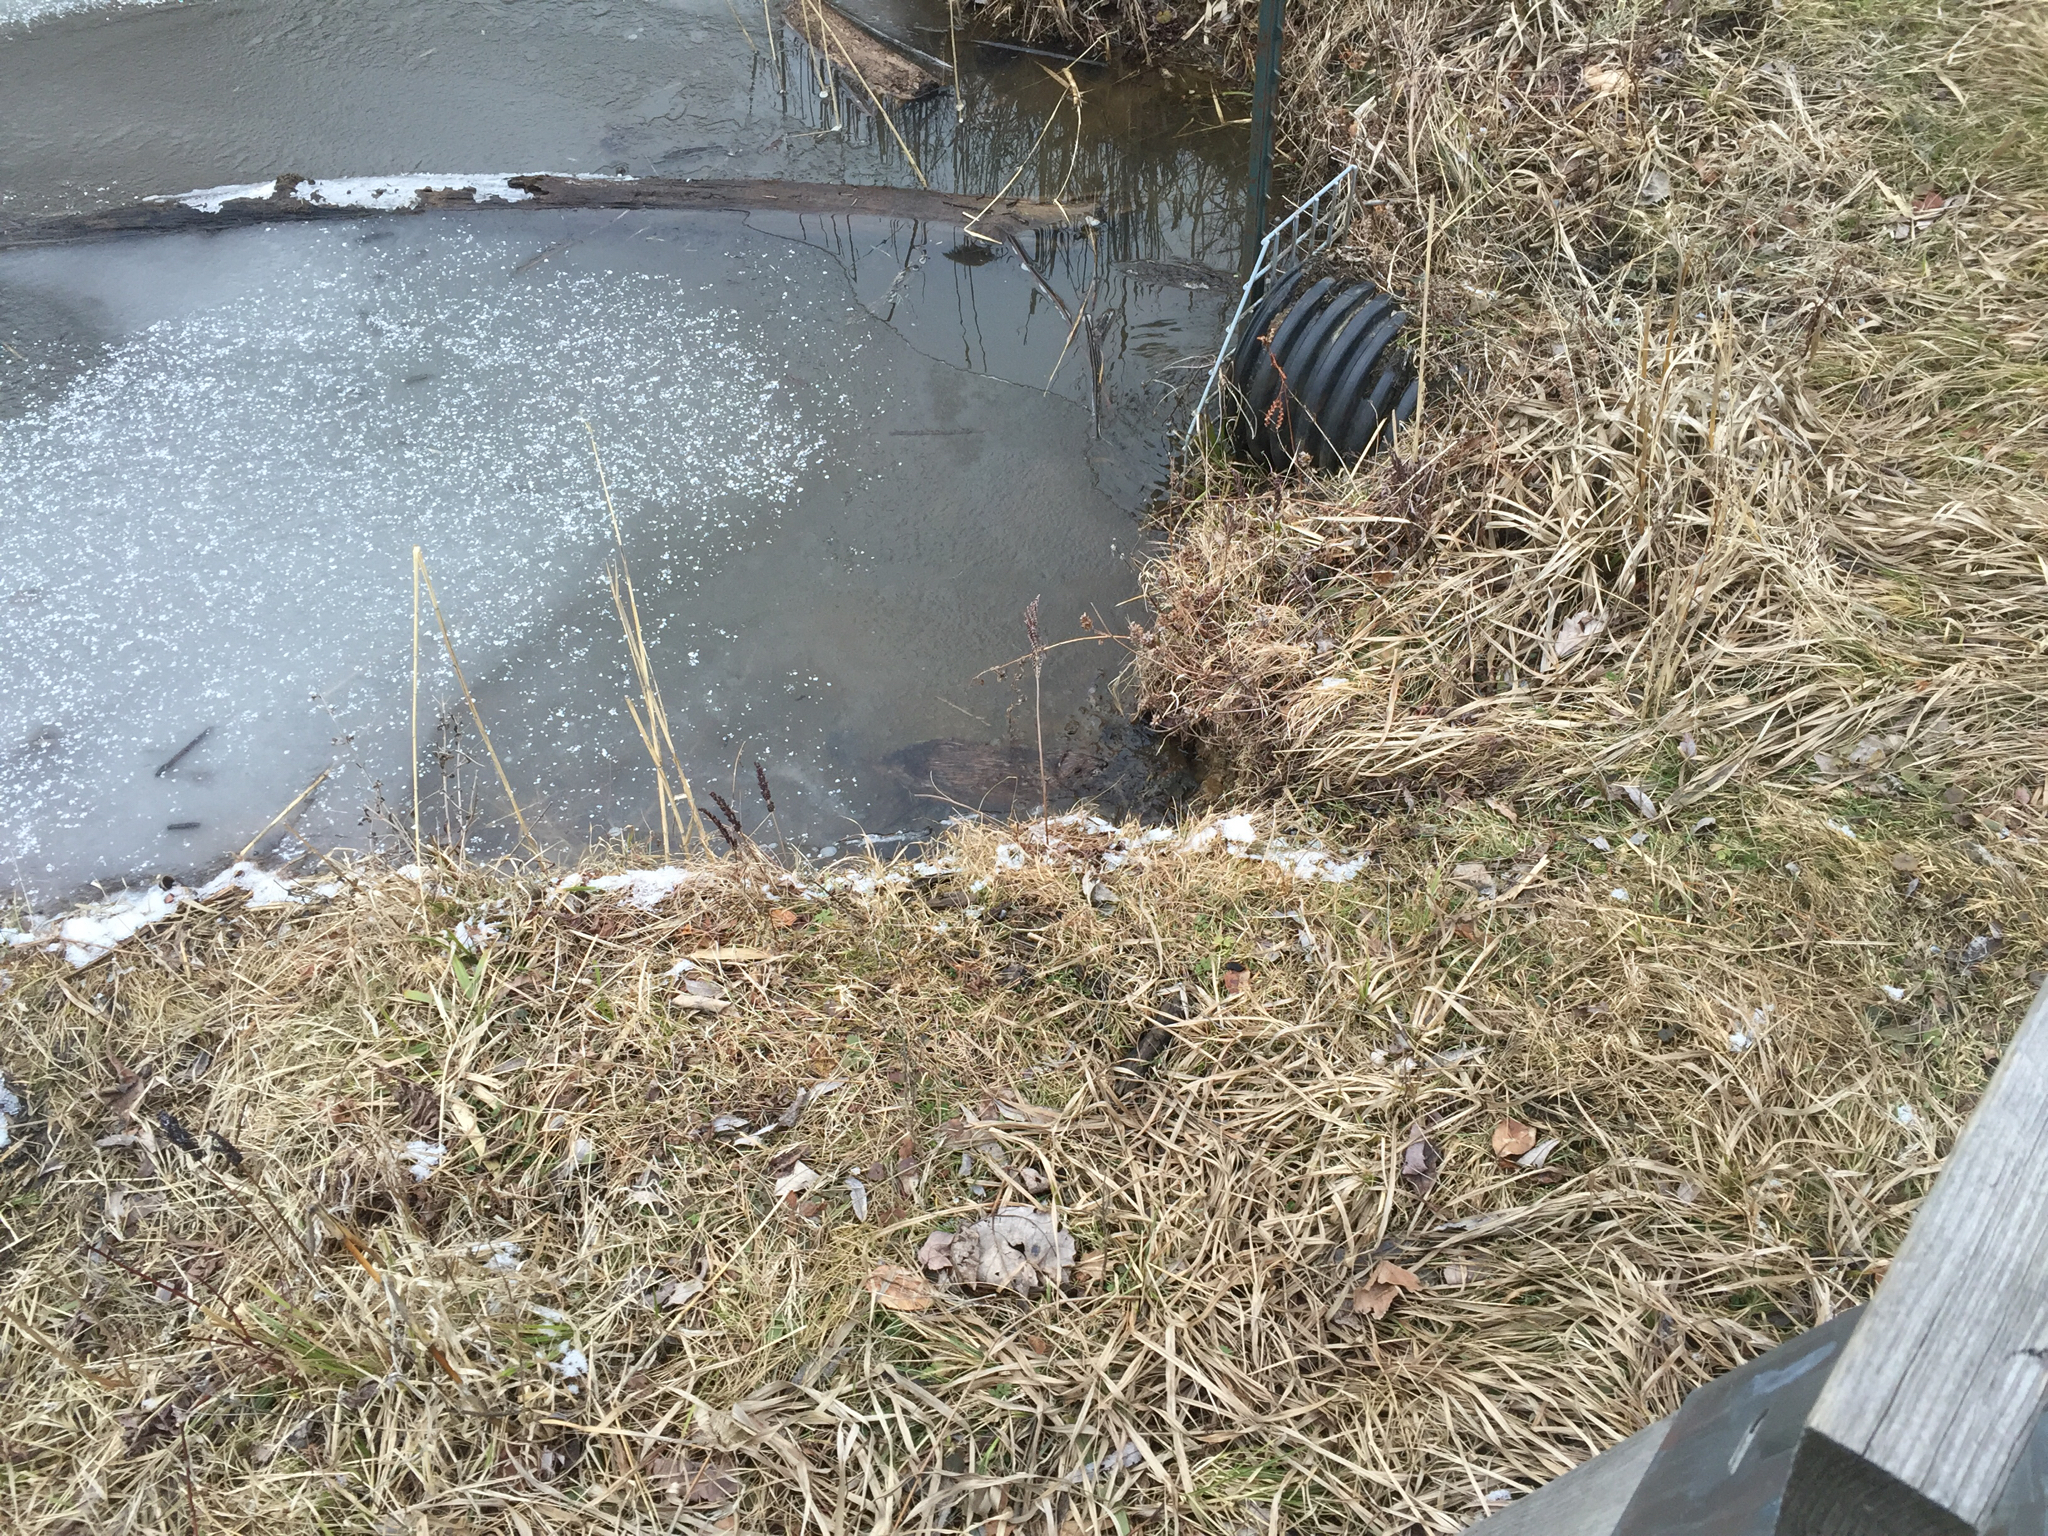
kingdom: Animalia
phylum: Chordata
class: Mammalia
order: Rodentia
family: Cricetidae
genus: Ondatra
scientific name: Ondatra zibethicus
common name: Muskrat
